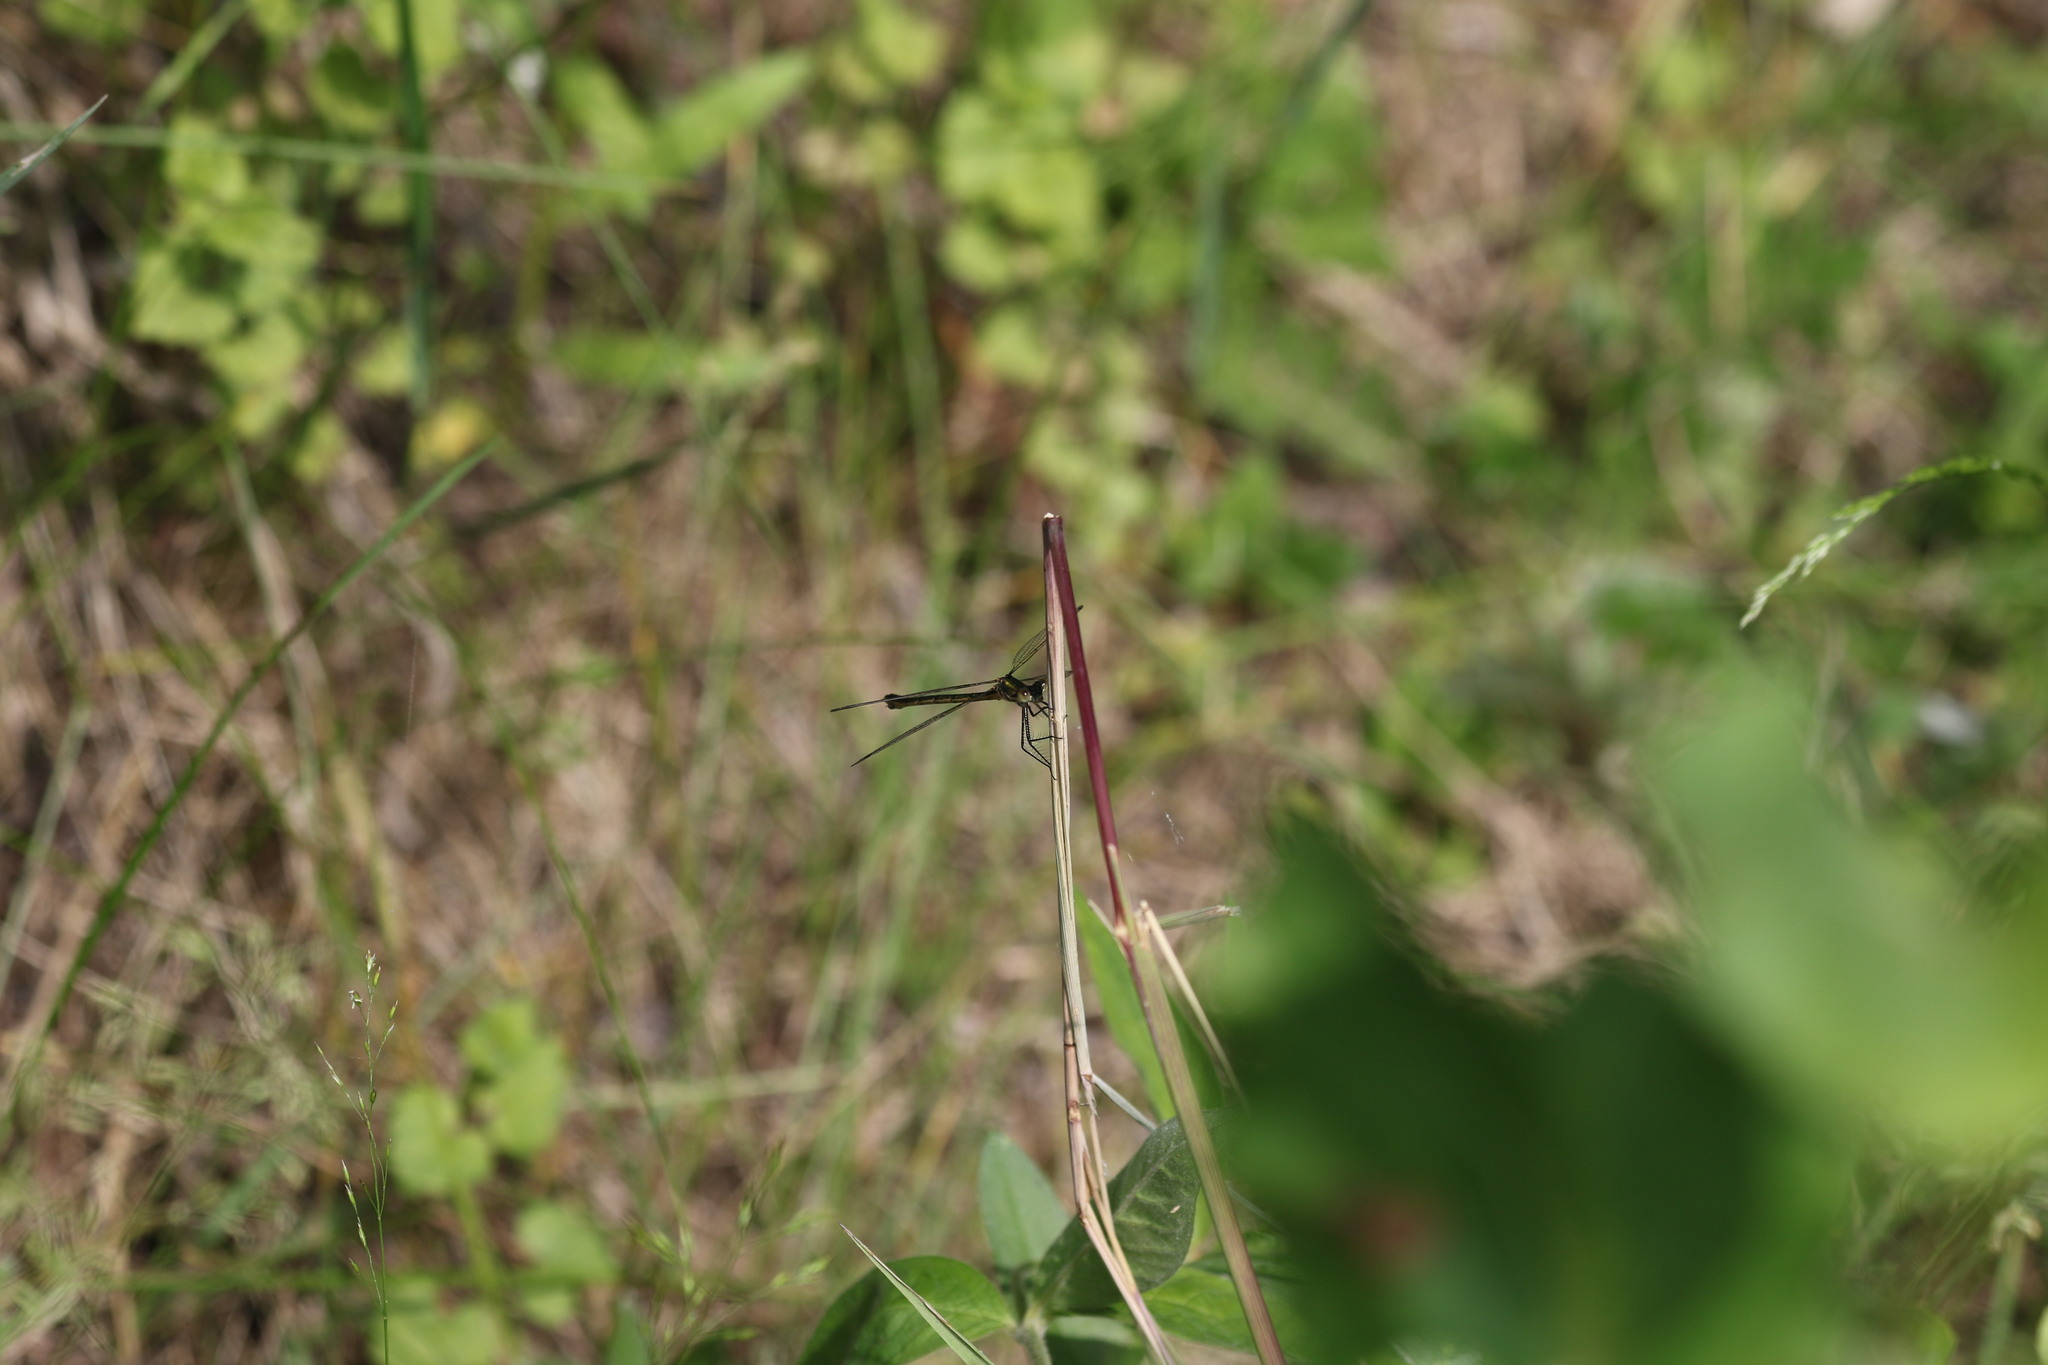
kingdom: Animalia
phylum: Arthropoda
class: Insecta
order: Odonata
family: Lestidae
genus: Lestes
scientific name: Lestes dryas
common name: Scarce emerald damselfly
